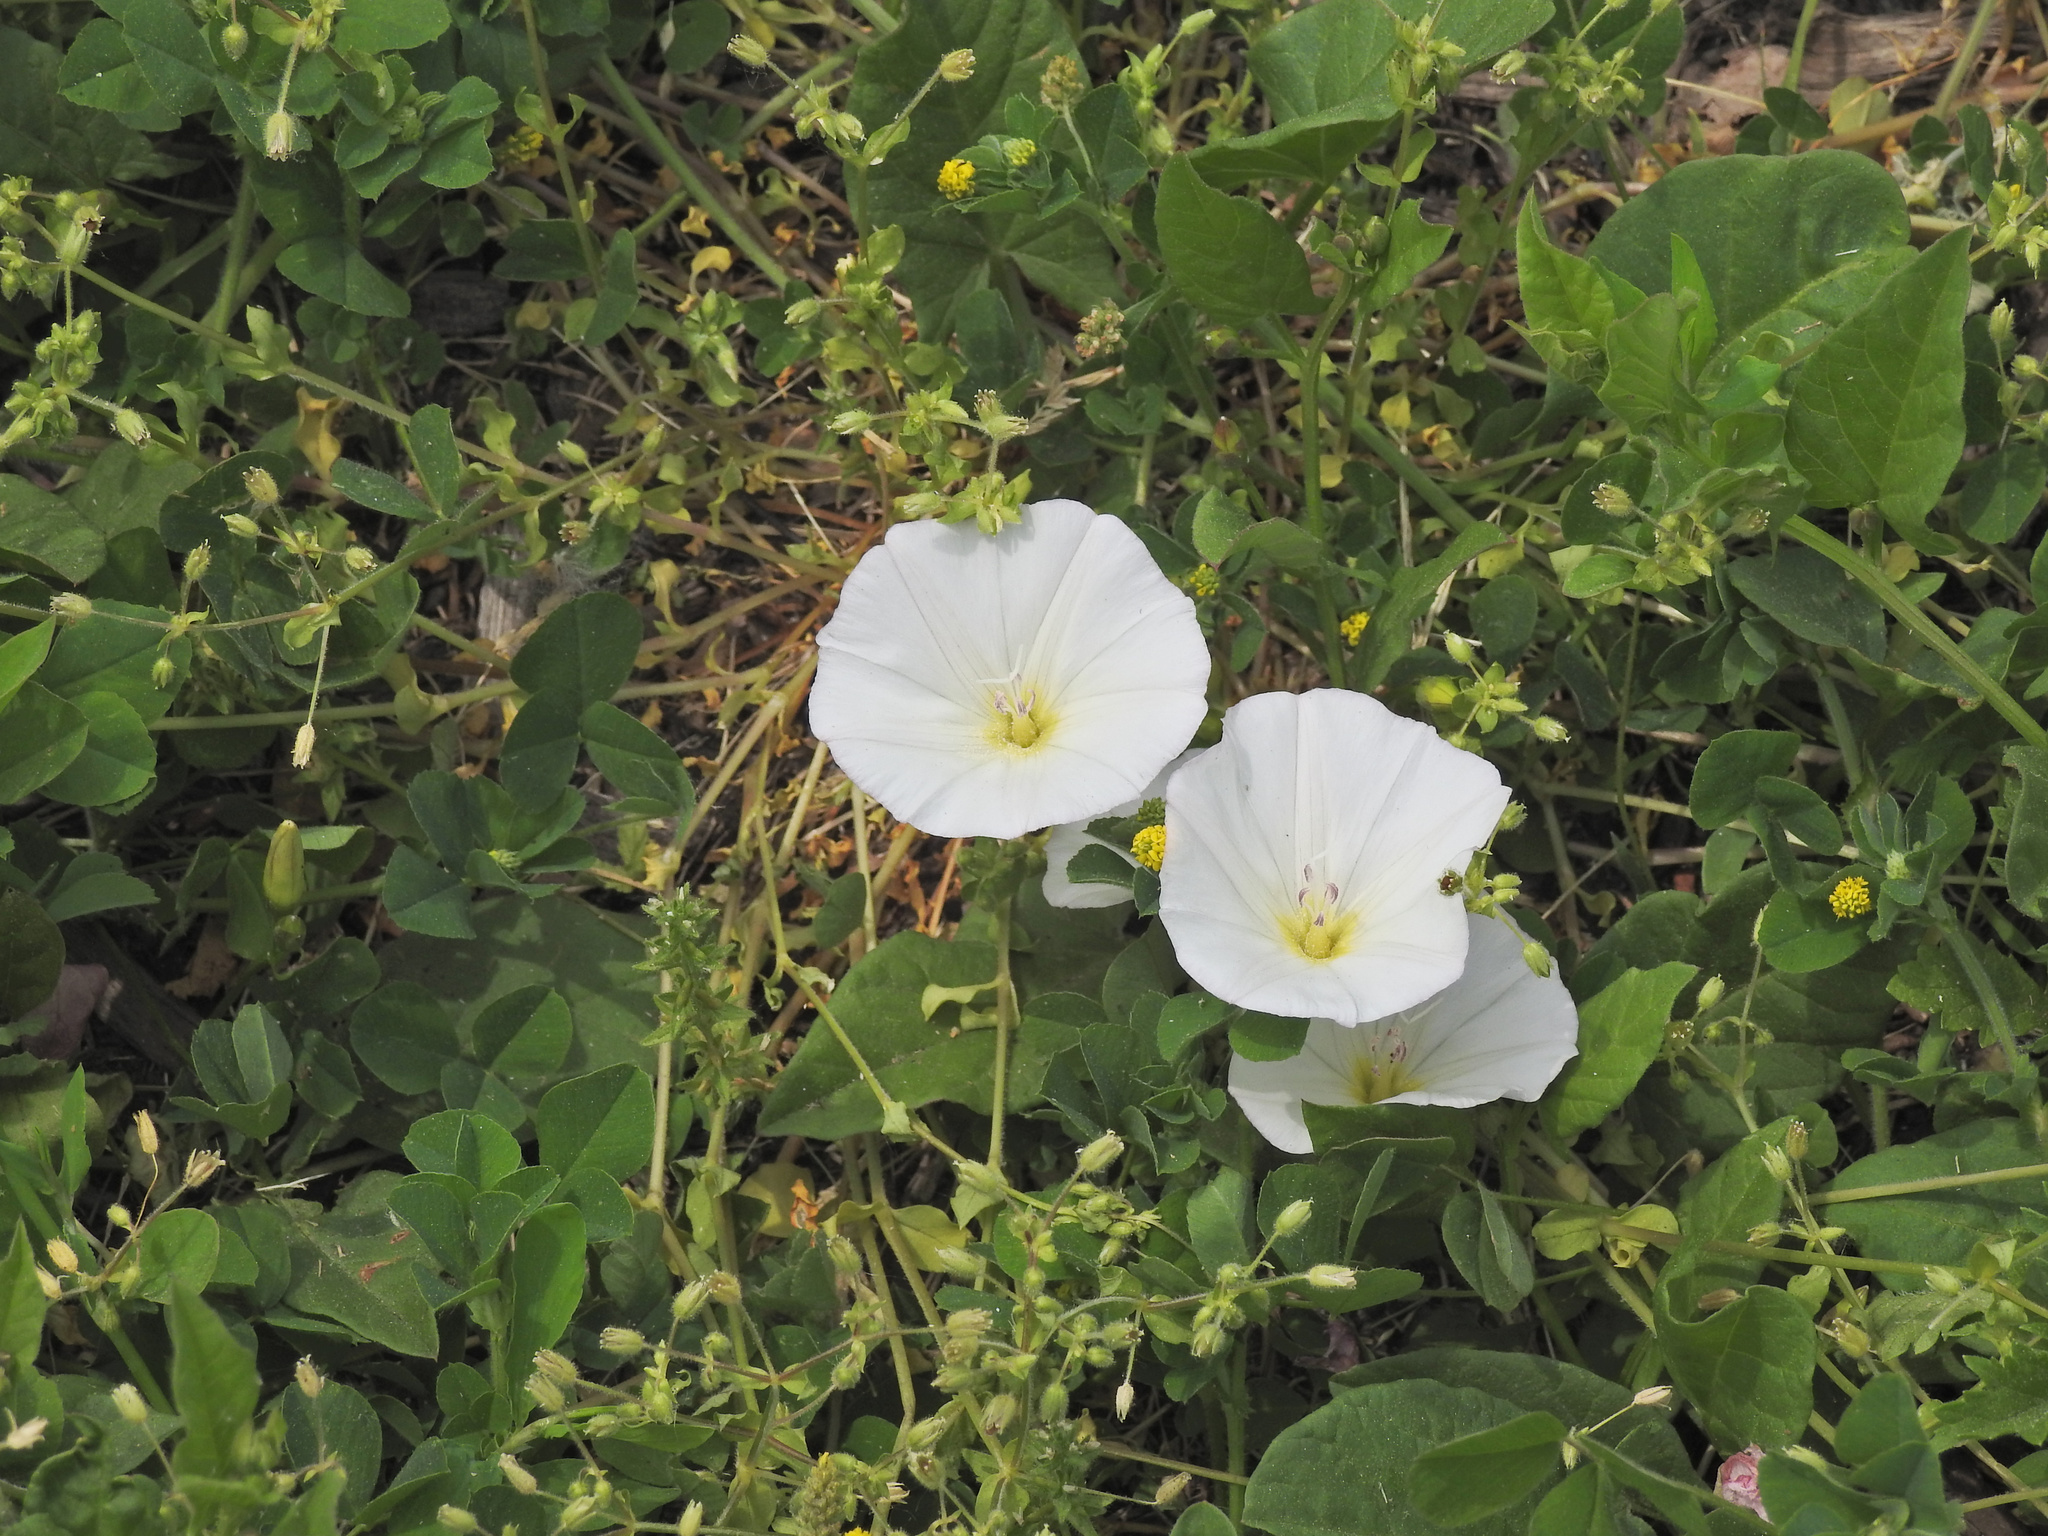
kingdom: Plantae
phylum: Tracheophyta
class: Magnoliopsida
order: Solanales
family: Convolvulaceae
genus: Convolvulus
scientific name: Convolvulus arvensis
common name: Field bindweed
